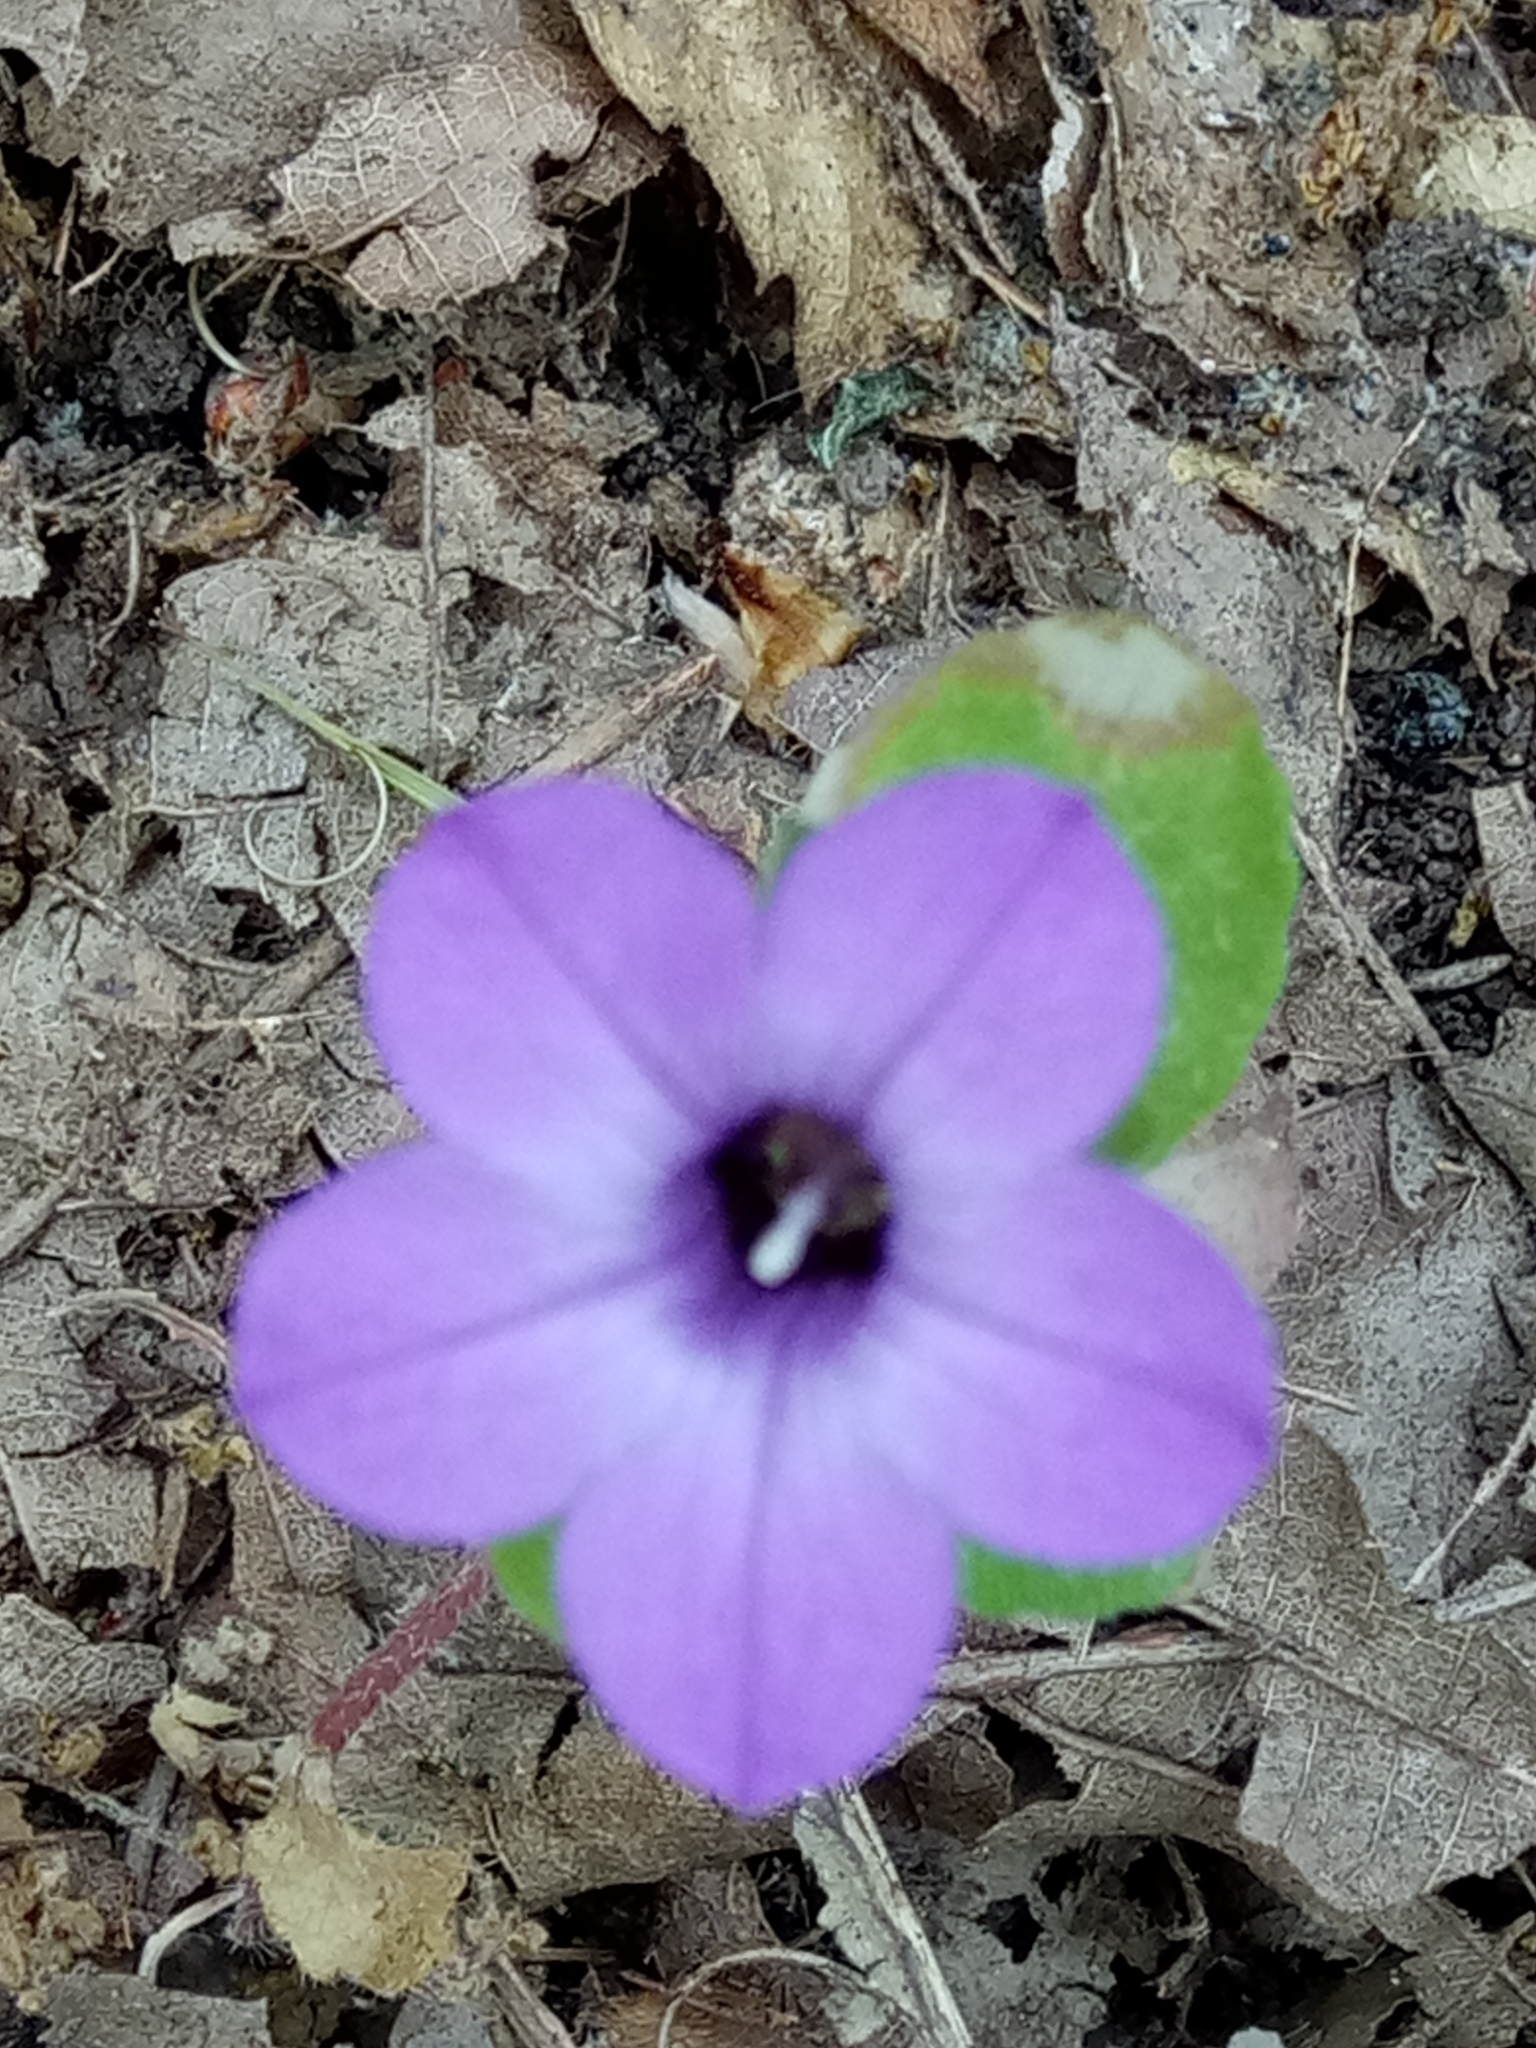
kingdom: Plantae
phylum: Tracheophyta
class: Magnoliopsida
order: Asterales
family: Campanulaceae
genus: Campanula
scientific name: Campanula dichotoma
